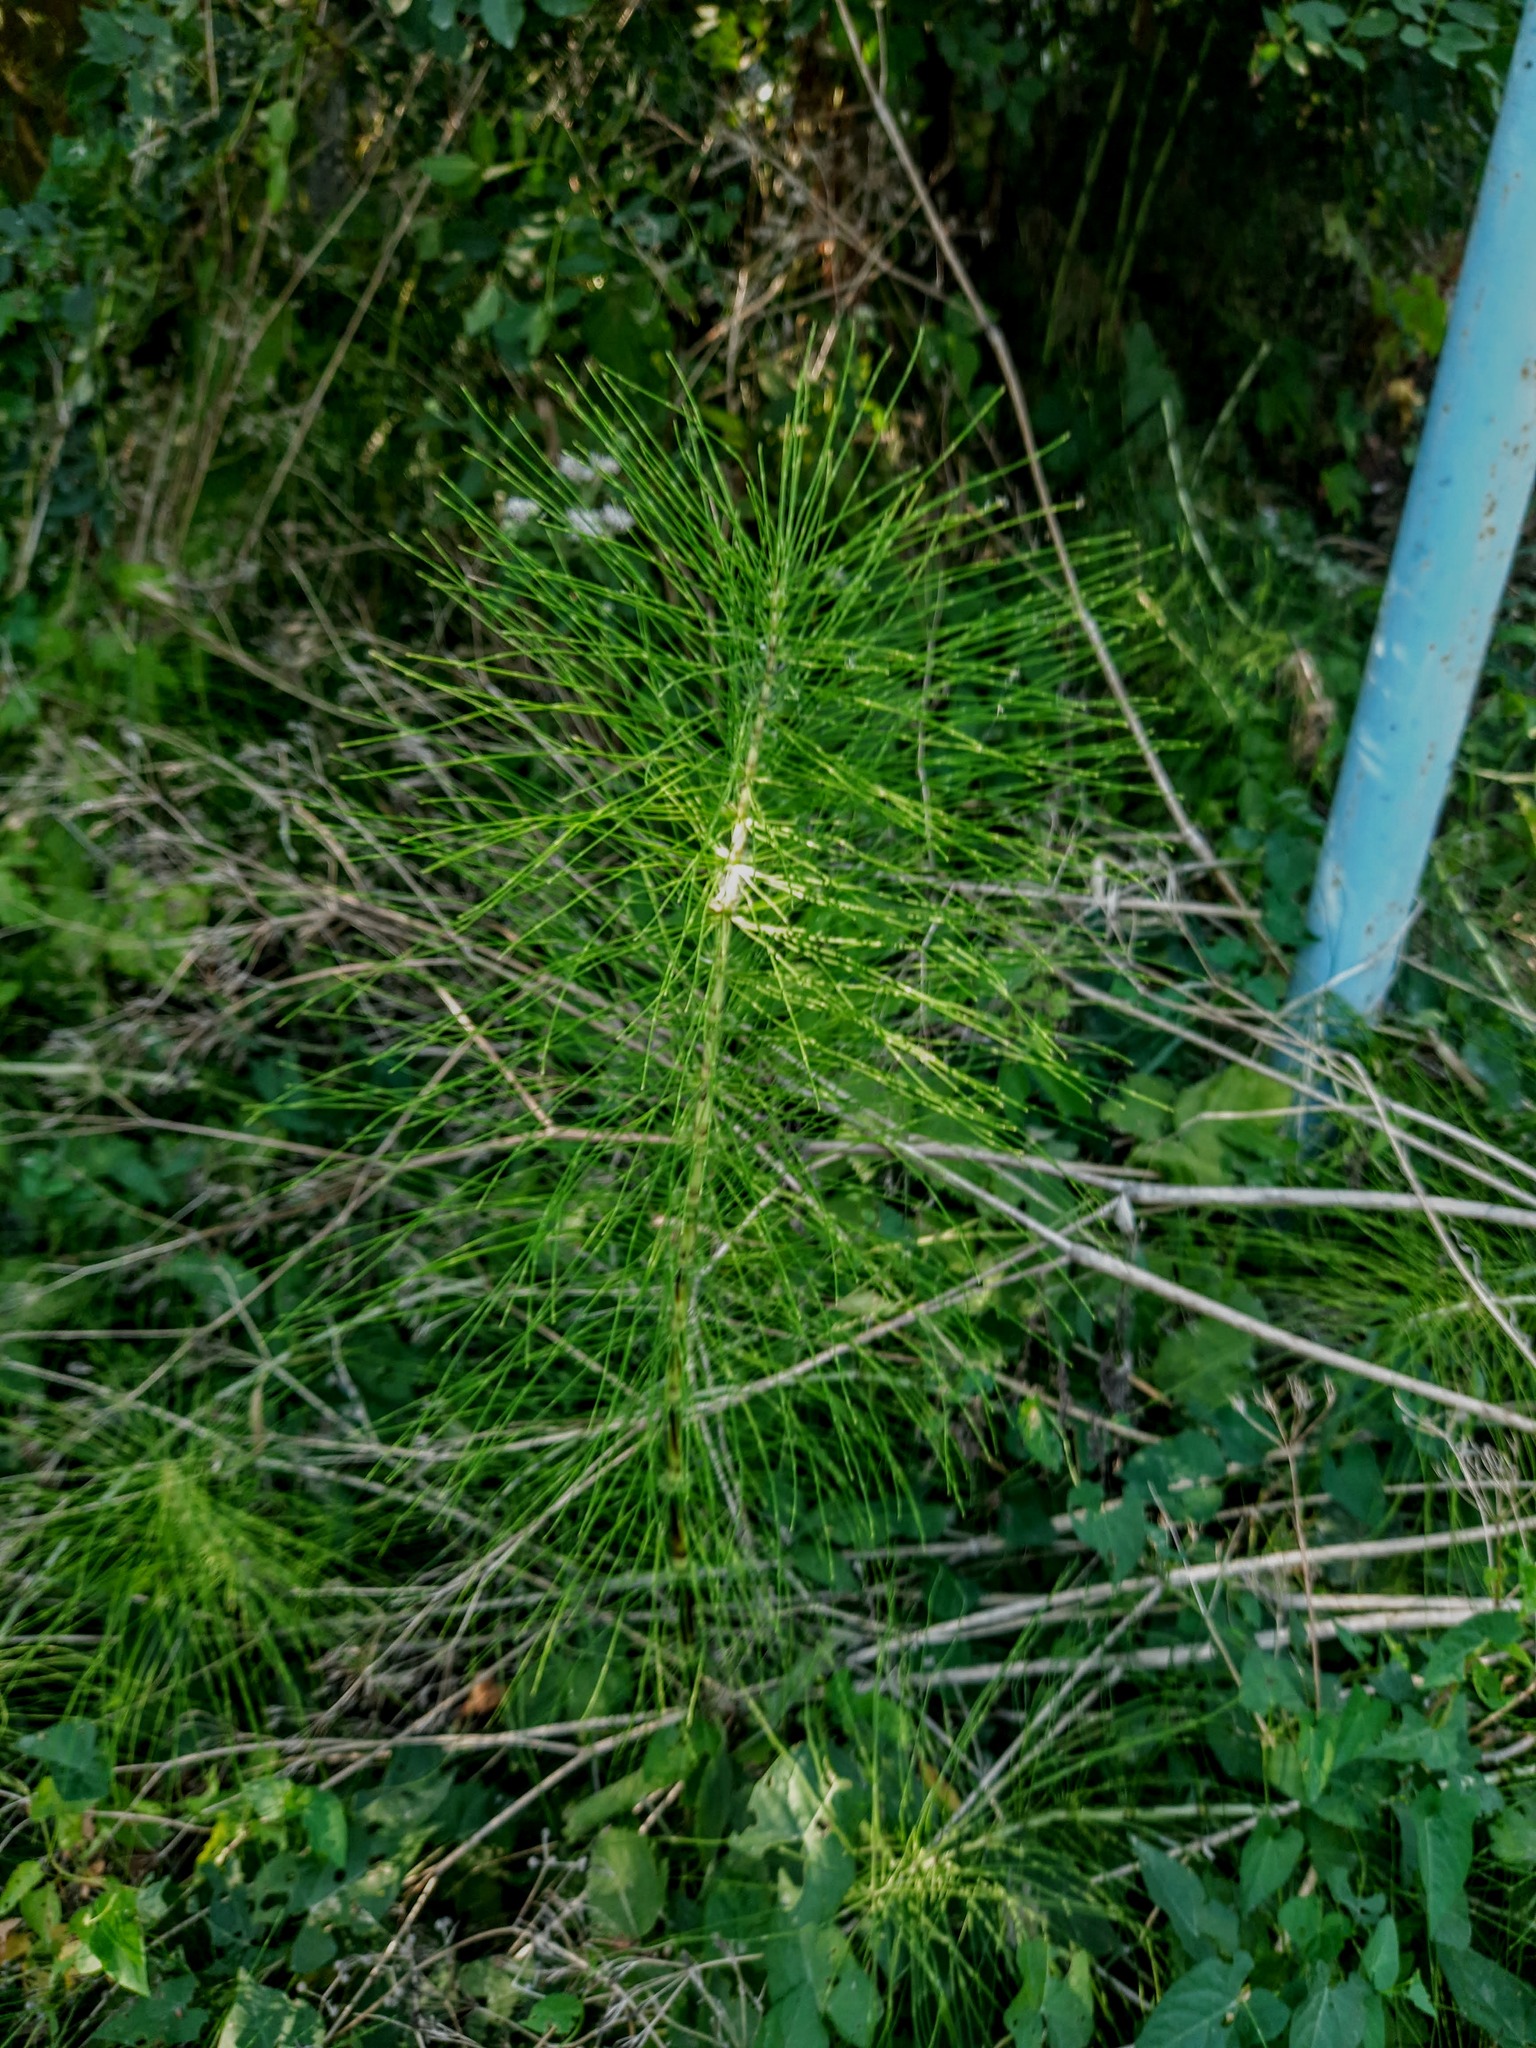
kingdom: Plantae
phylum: Tracheophyta
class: Polypodiopsida
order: Equisetales
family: Equisetaceae
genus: Equisetum
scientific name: Equisetum telmateia
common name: Great horsetail
